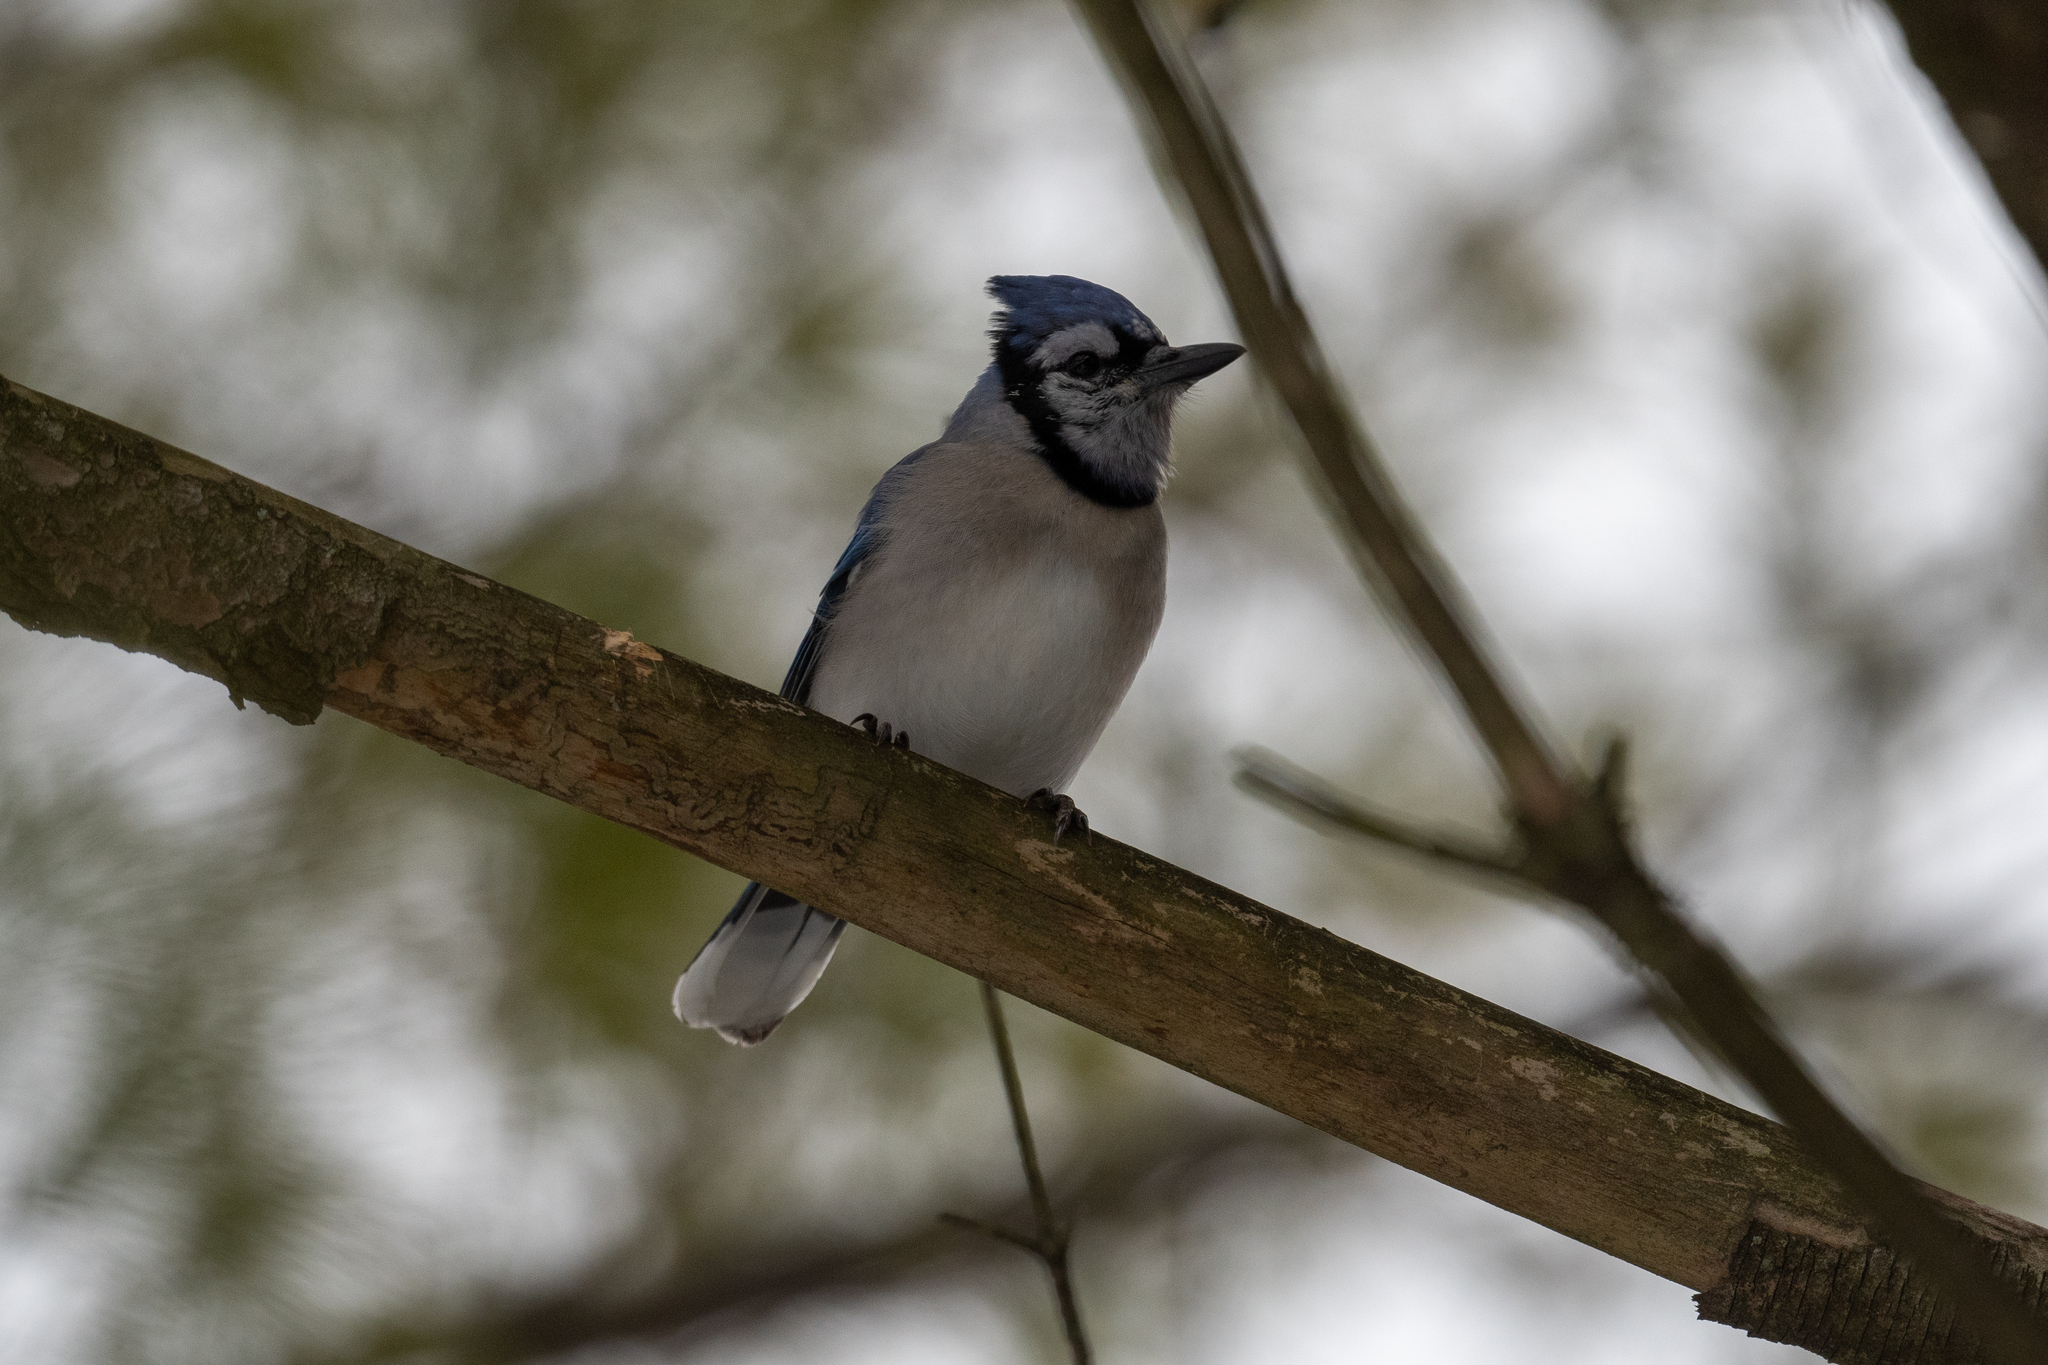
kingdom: Animalia
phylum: Chordata
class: Aves
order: Passeriformes
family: Corvidae
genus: Cyanocitta
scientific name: Cyanocitta cristata
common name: Blue jay
